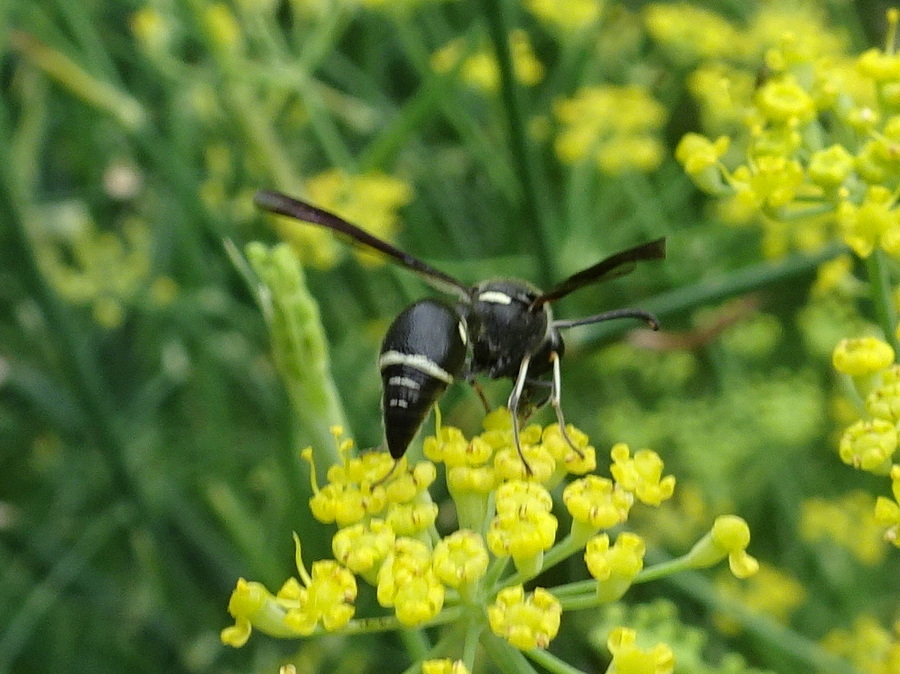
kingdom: Animalia
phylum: Arthropoda
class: Insecta
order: Hymenoptera
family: Vespidae
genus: Eumenes
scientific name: Eumenes fraternus
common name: Fraternal potter wasp
